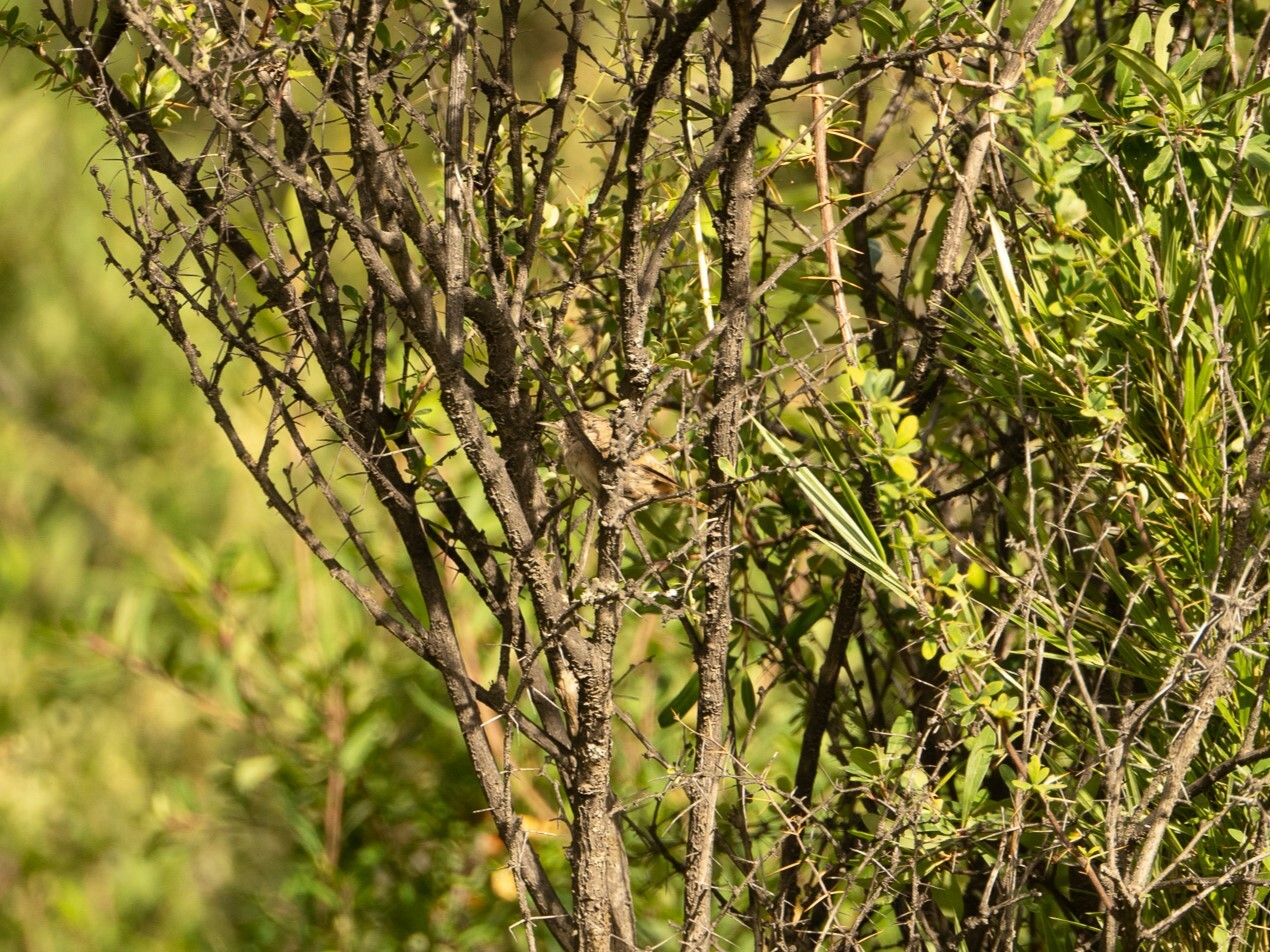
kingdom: Animalia
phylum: Chordata
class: Aves
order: Passeriformes
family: Troglodytidae
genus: Troglodytes
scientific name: Troglodytes aedon
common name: House wren
